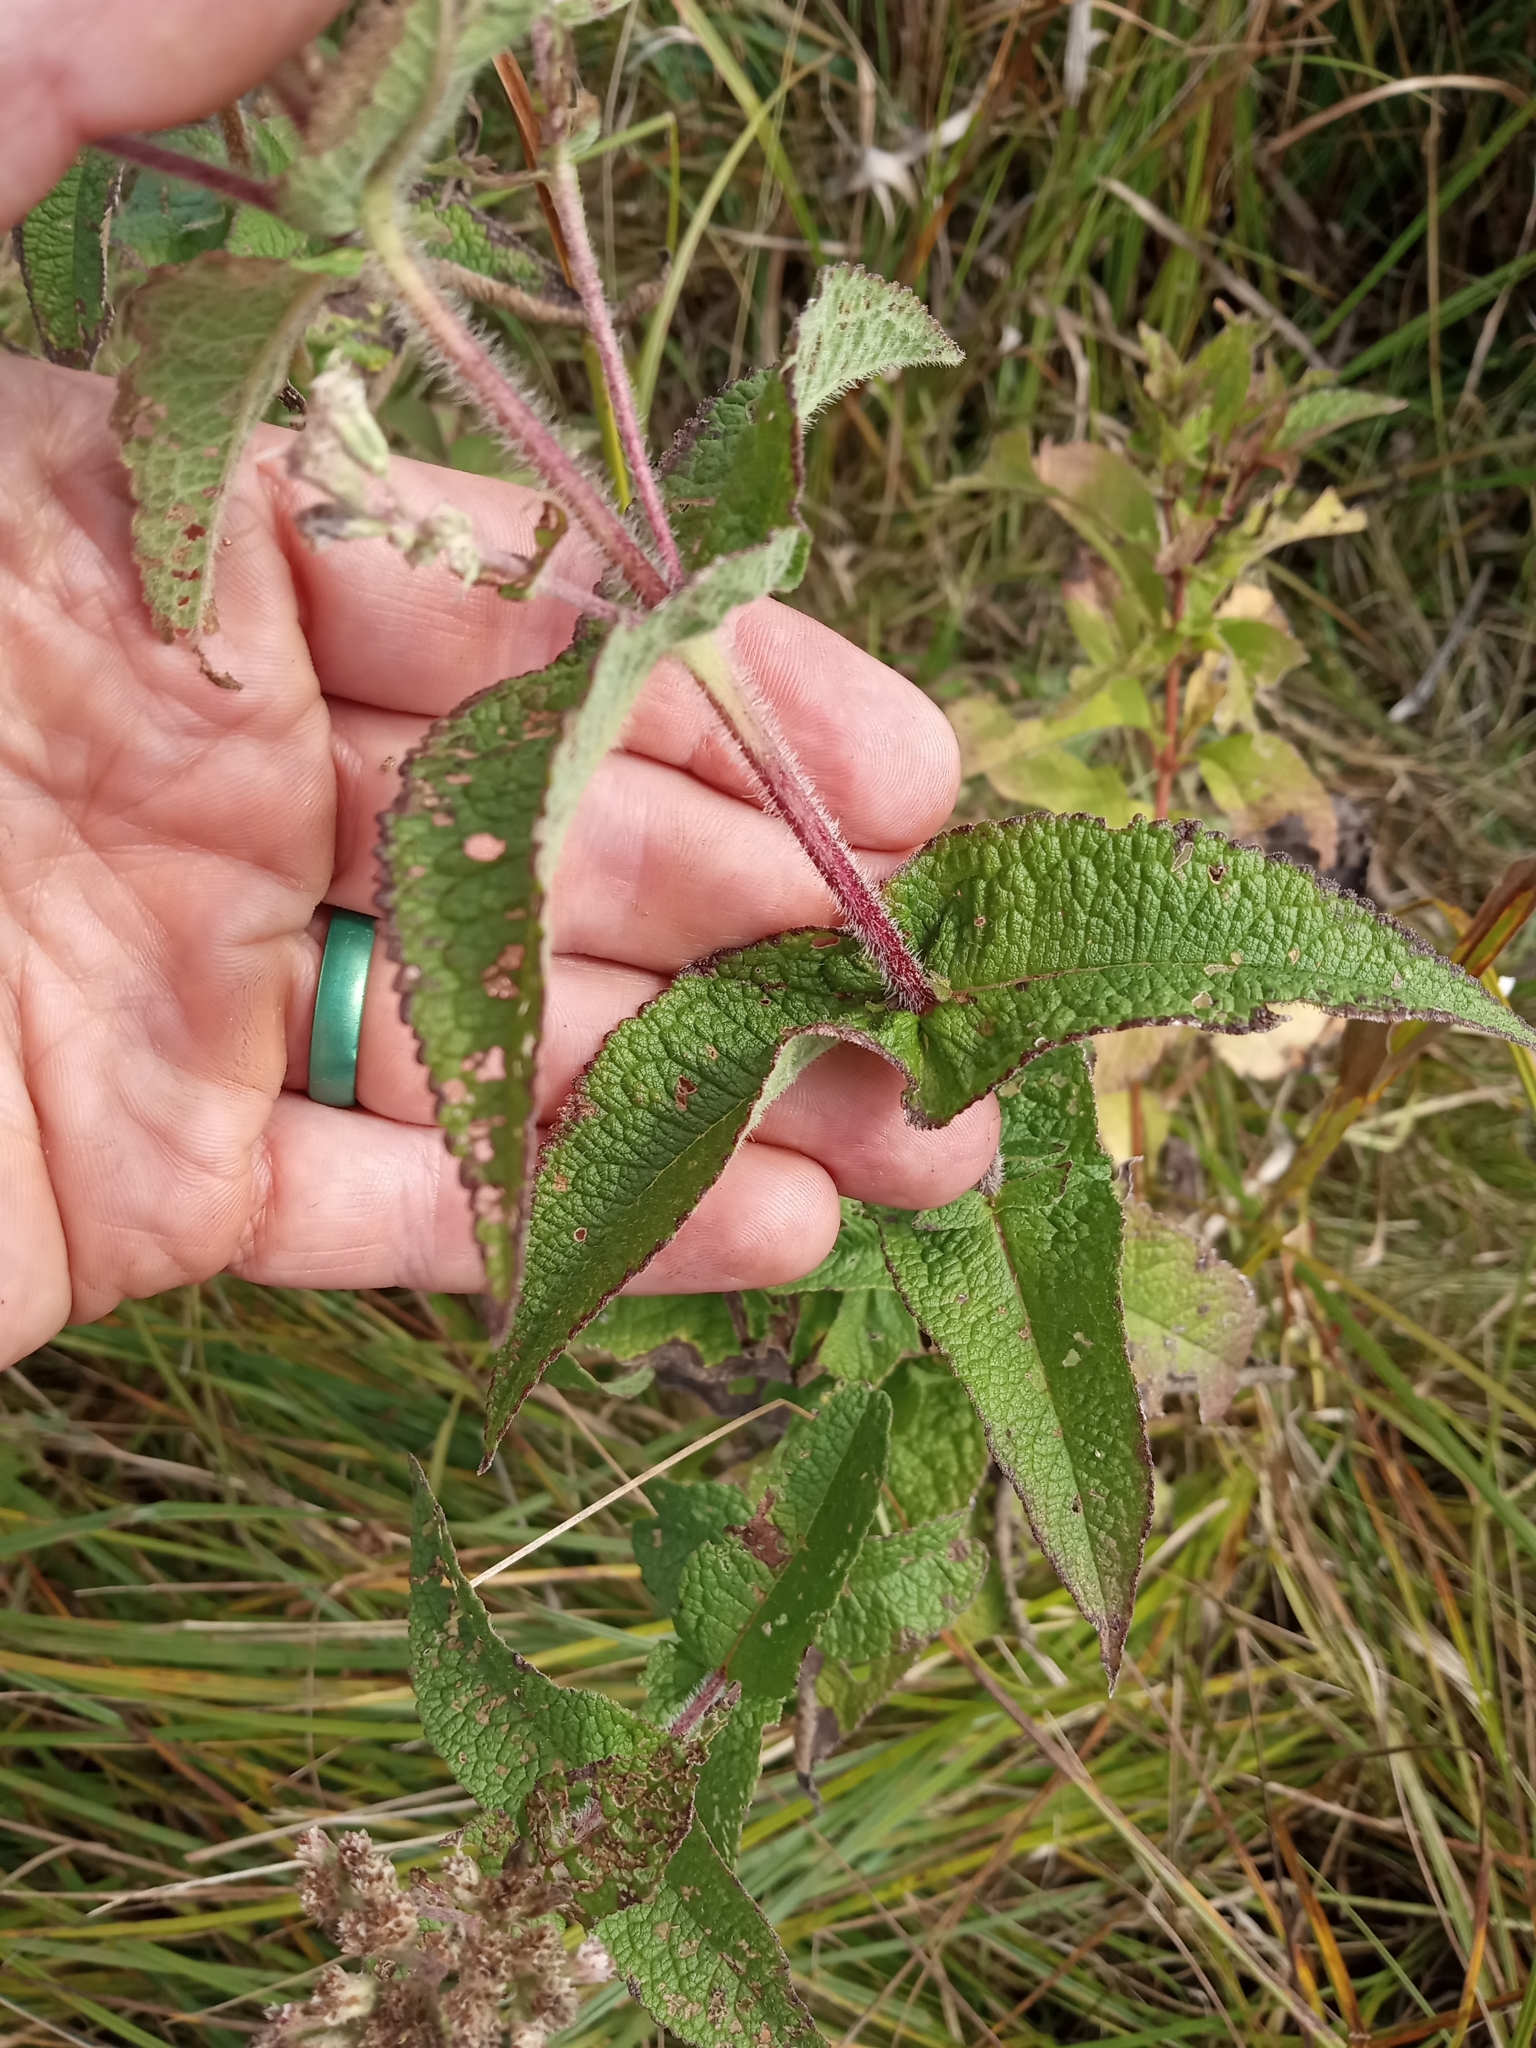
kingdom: Plantae
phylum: Tracheophyta
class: Magnoliopsida
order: Asterales
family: Asteraceae
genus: Eupatorium
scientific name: Eupatorium perfoliatum
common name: Boneset
